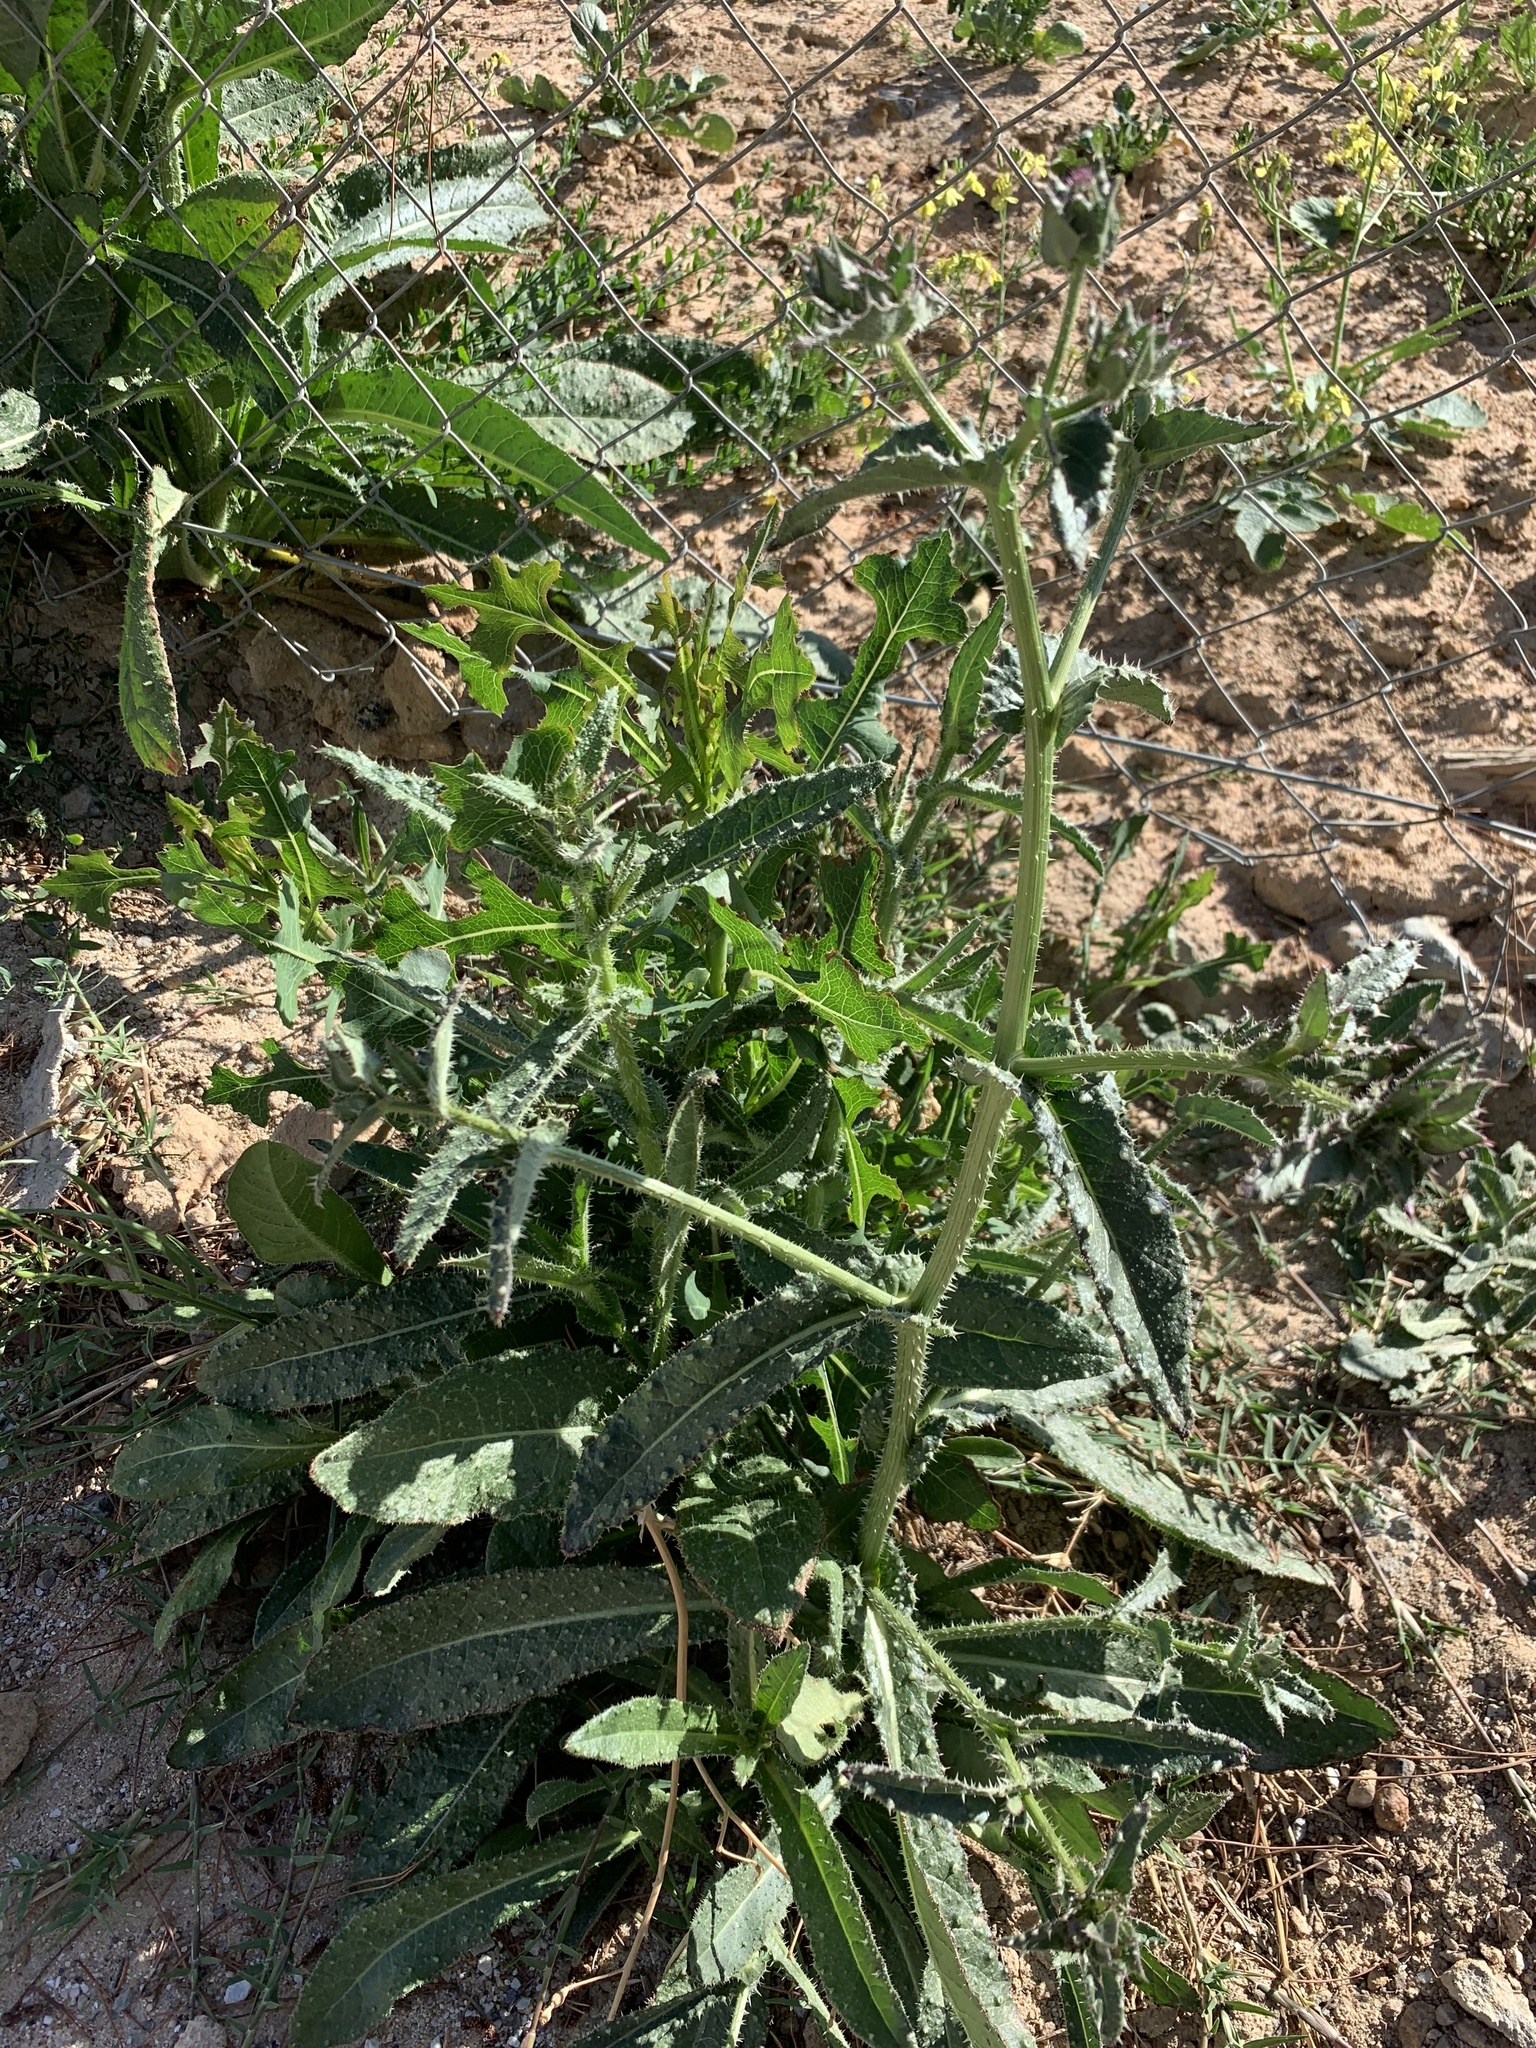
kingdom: Plantae
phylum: Tracheophyta
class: Magnoliopsida
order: Asterales
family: Asteraceae
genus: Helminthotheca
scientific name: Helminthotheca echioides
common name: Ox-tongue
